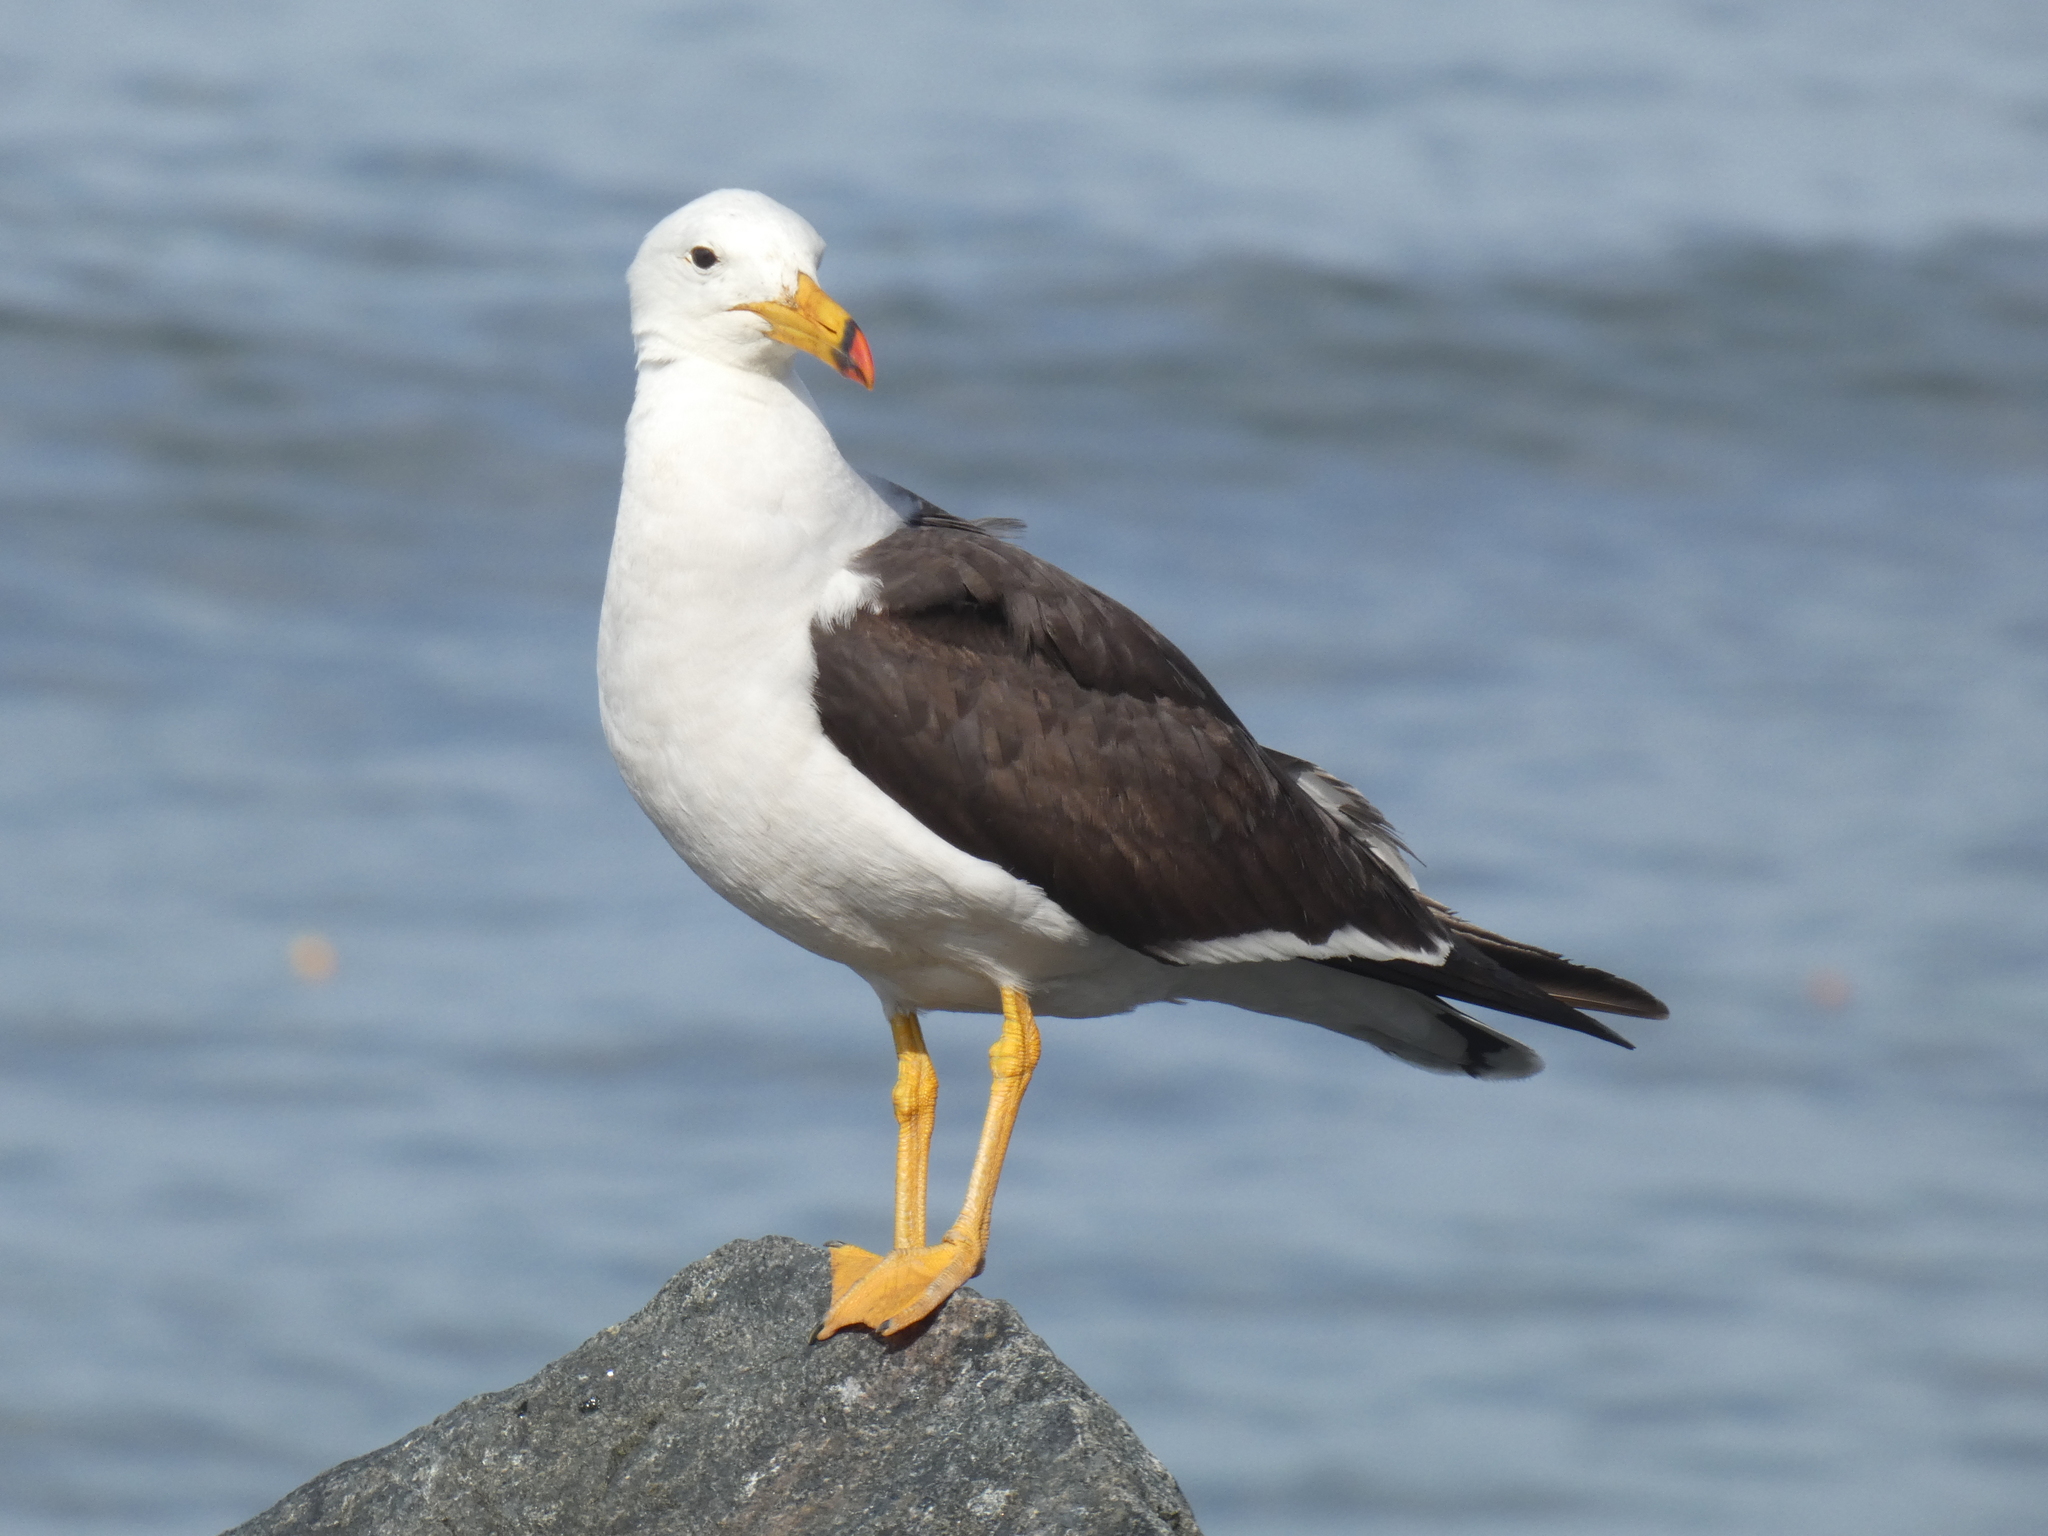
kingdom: Animalia
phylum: Chordata
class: Aves
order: Charadriiformes
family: Laridae
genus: Larus
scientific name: Larus belcheri
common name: Belcher's gull
